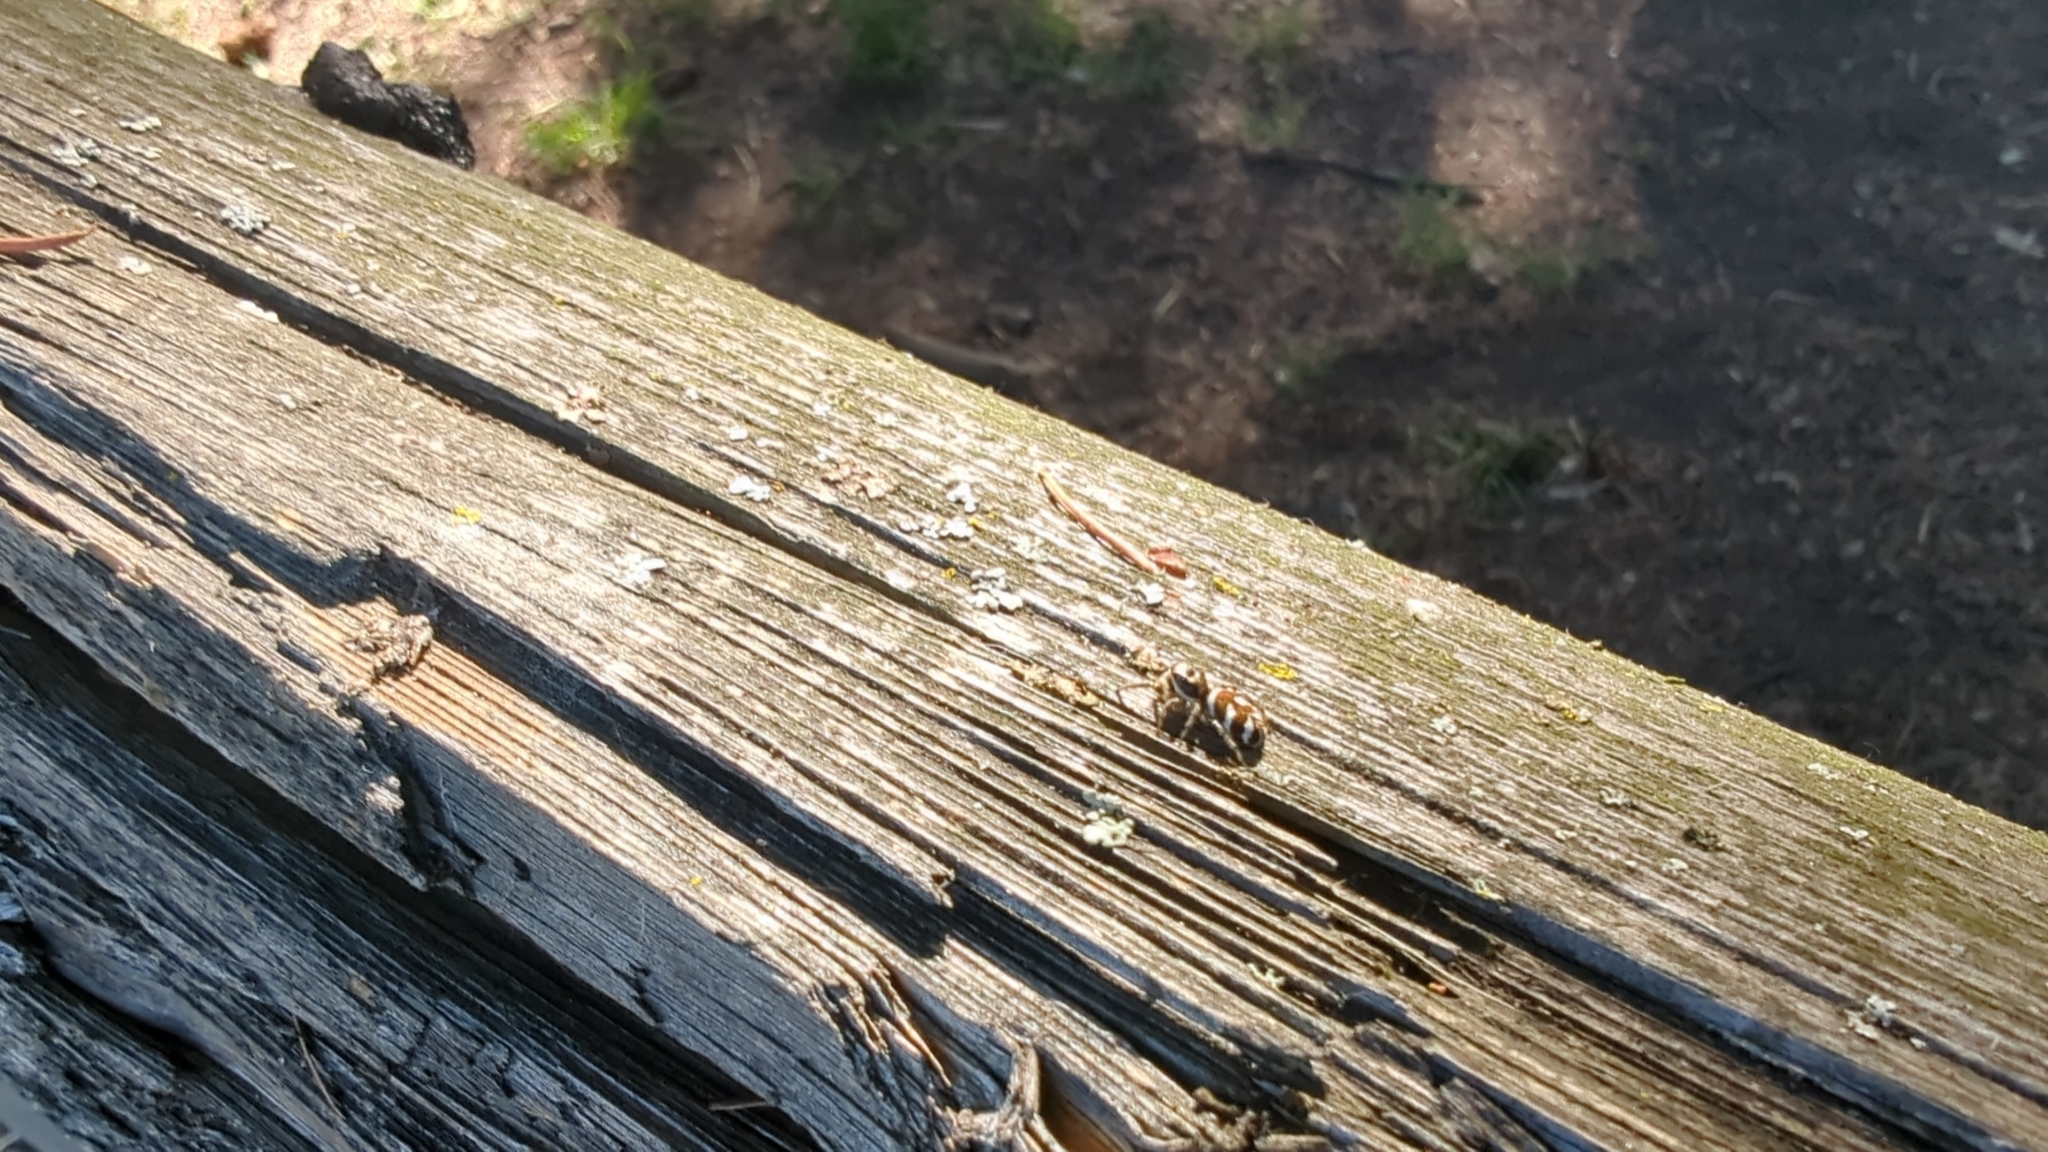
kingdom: Animalia
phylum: Arthropoda
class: Arachnida
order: Araneae
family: Salticidae
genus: Salticus
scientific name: Salticus scenicus
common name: Zebra jumper
